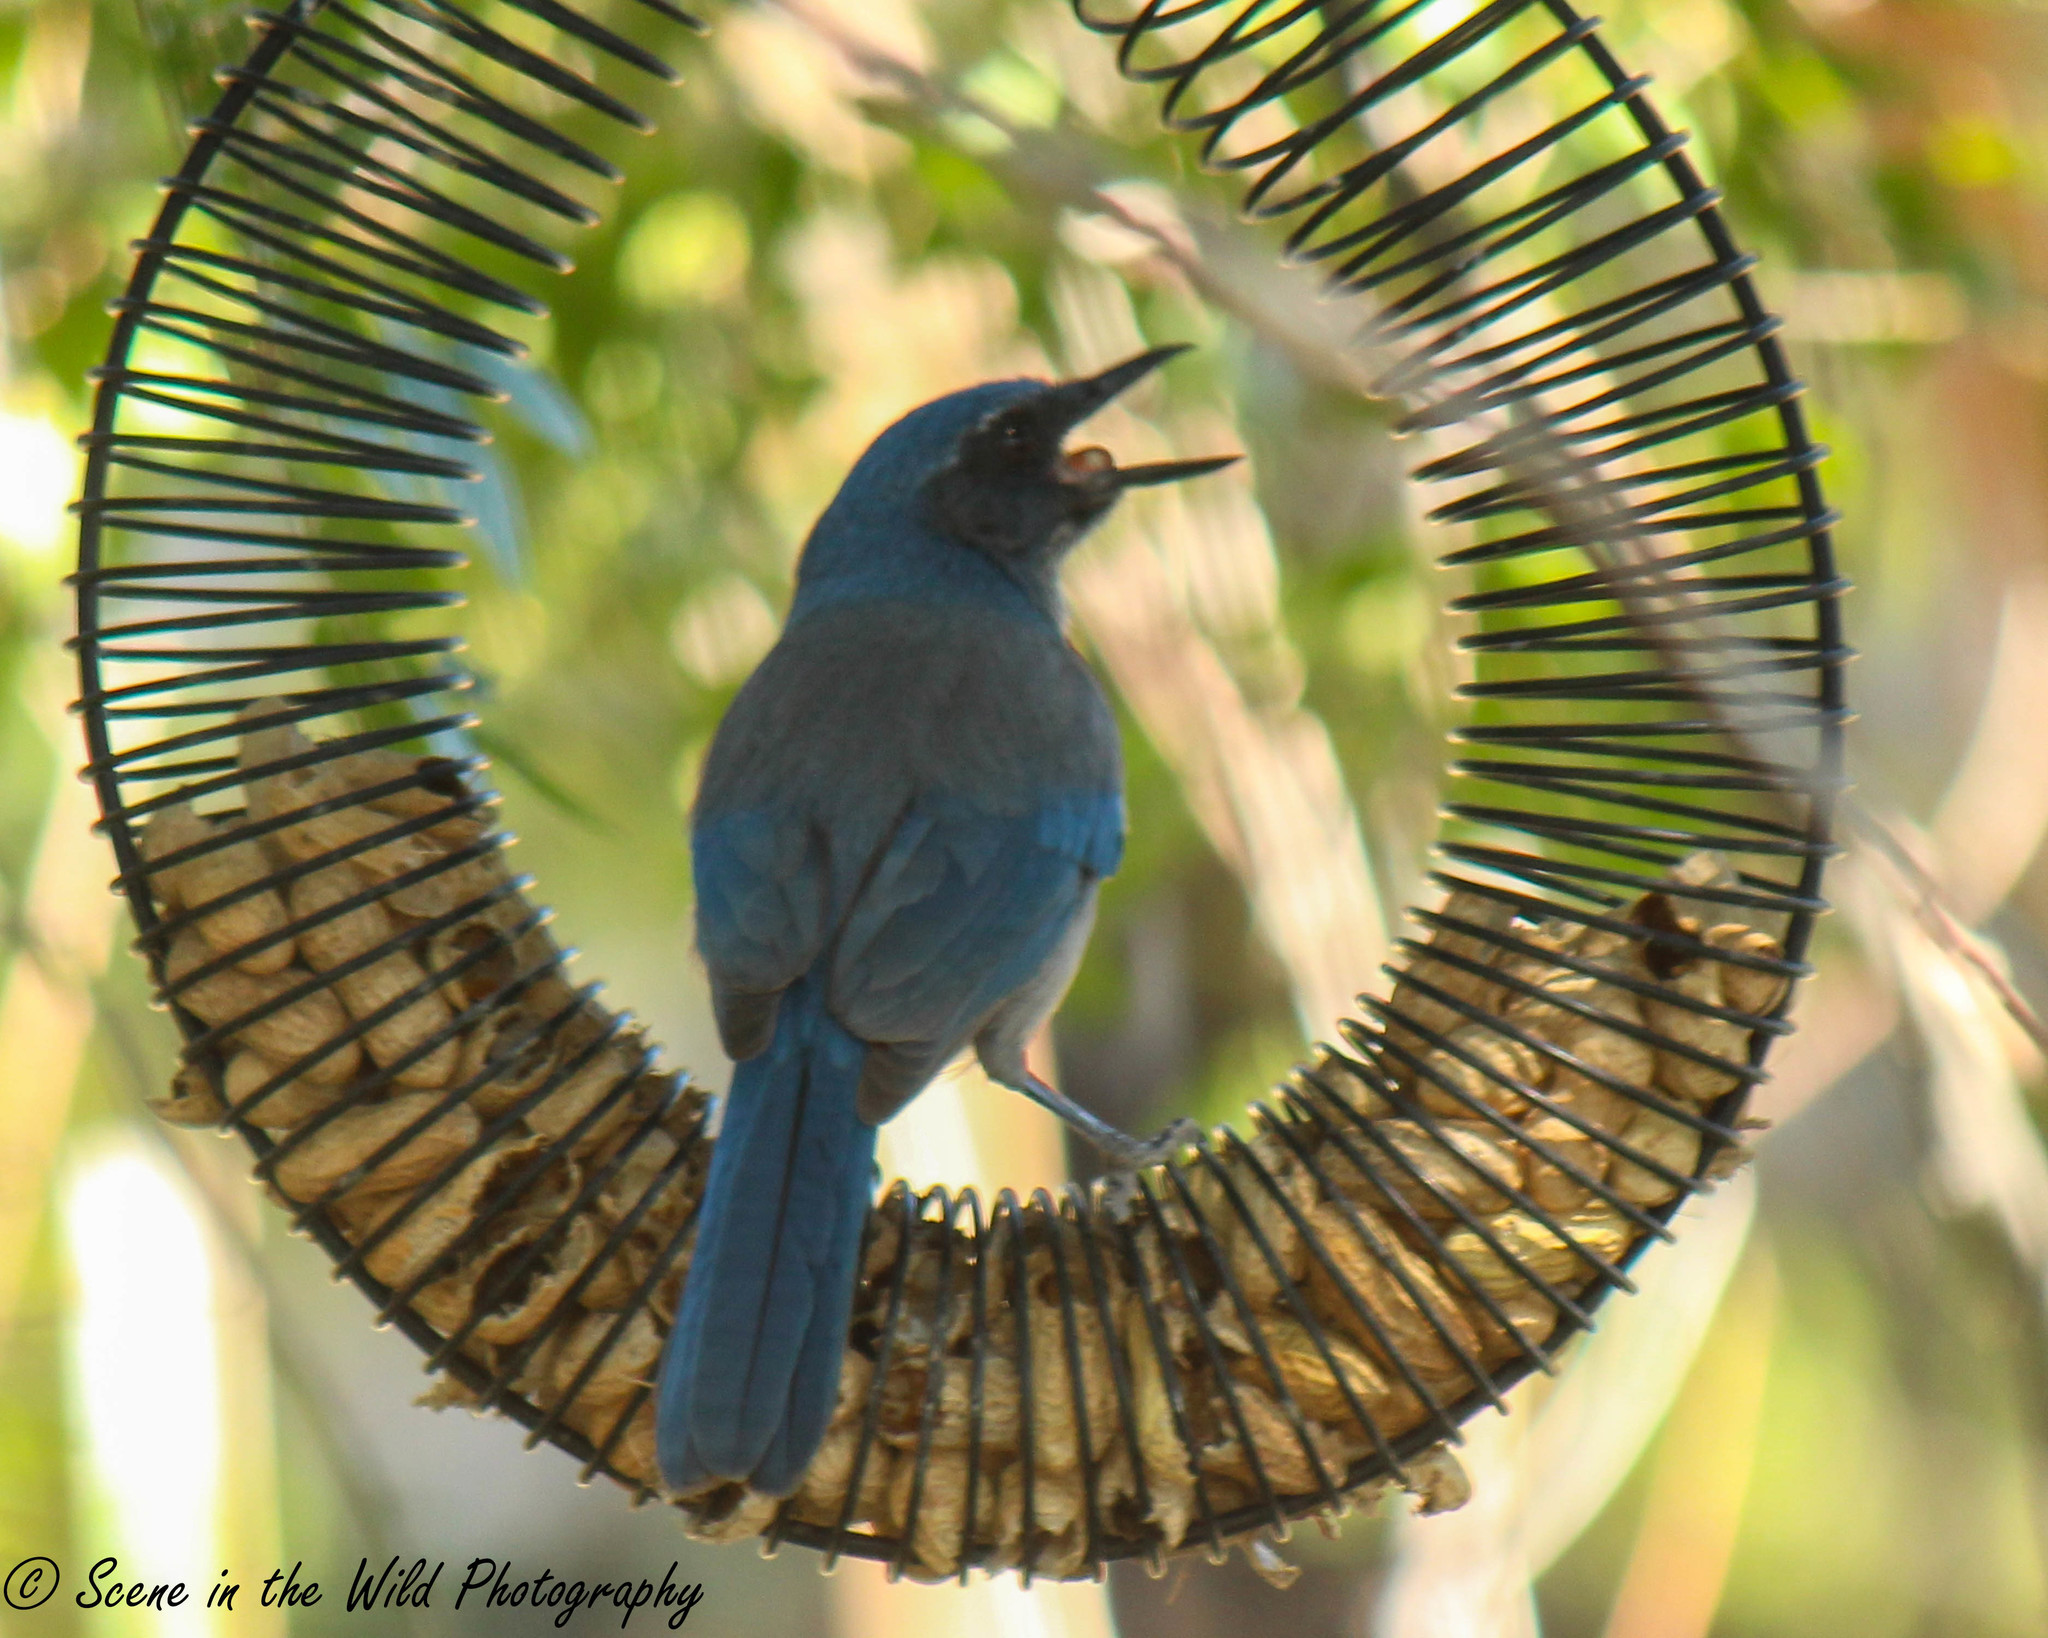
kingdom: Animalia
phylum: Chordata
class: Aves
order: Passeriformes
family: Corvidae
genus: Aphelocoma
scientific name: Aphelocoma woodhouseii
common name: Woodhouse's scrub-jay
